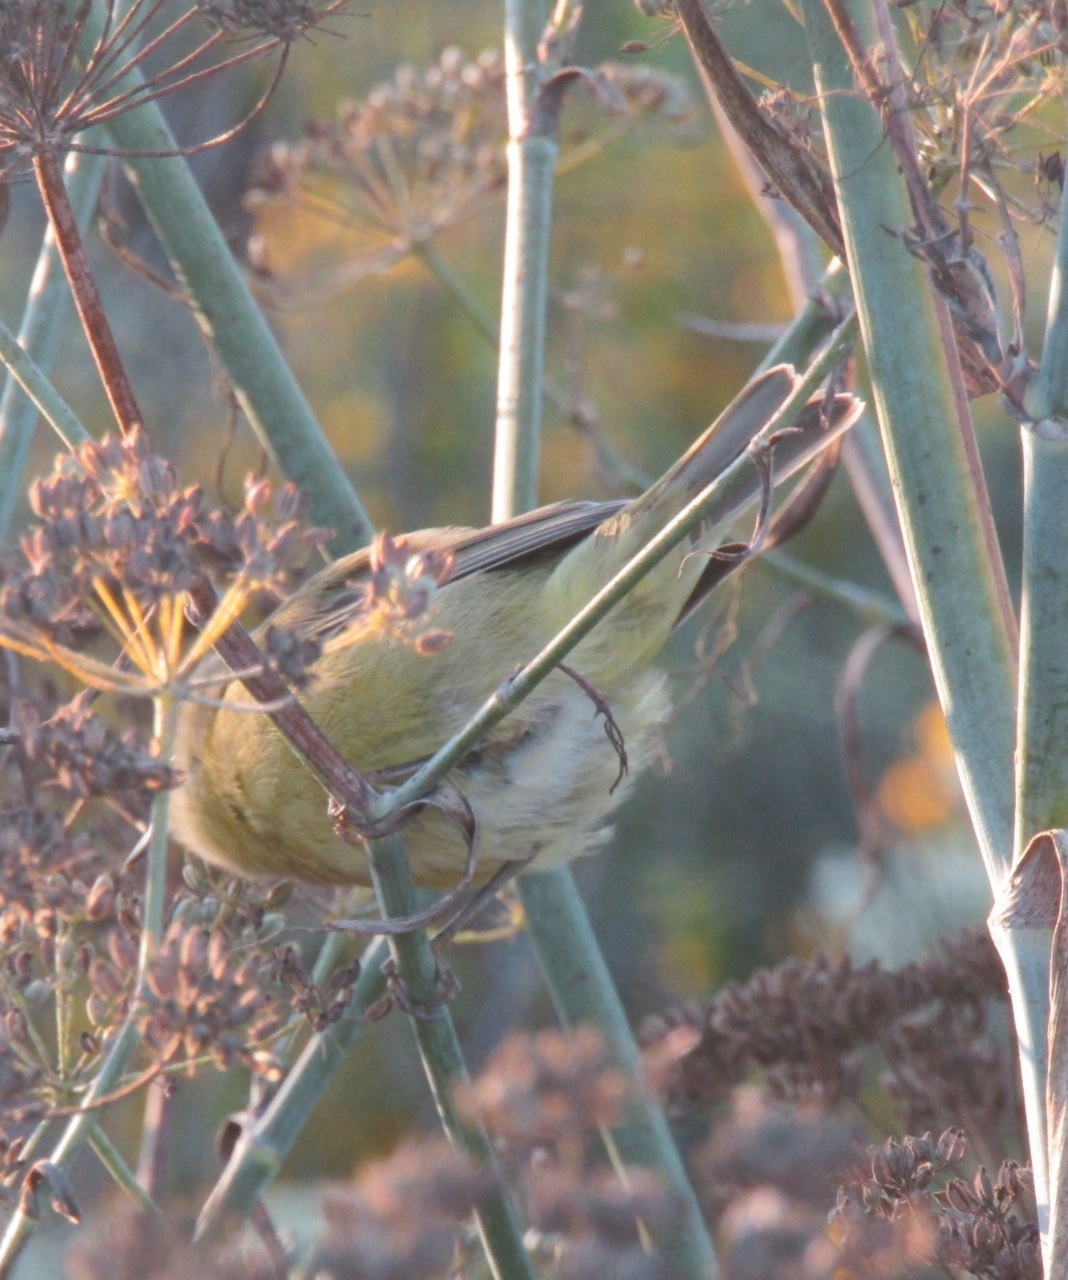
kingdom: Animalia
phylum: Chordata
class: Aves
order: Passeriformes
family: Parulidae
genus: Leiothlypis
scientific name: Leiothlypis celata
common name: Orange-crowned warbler
